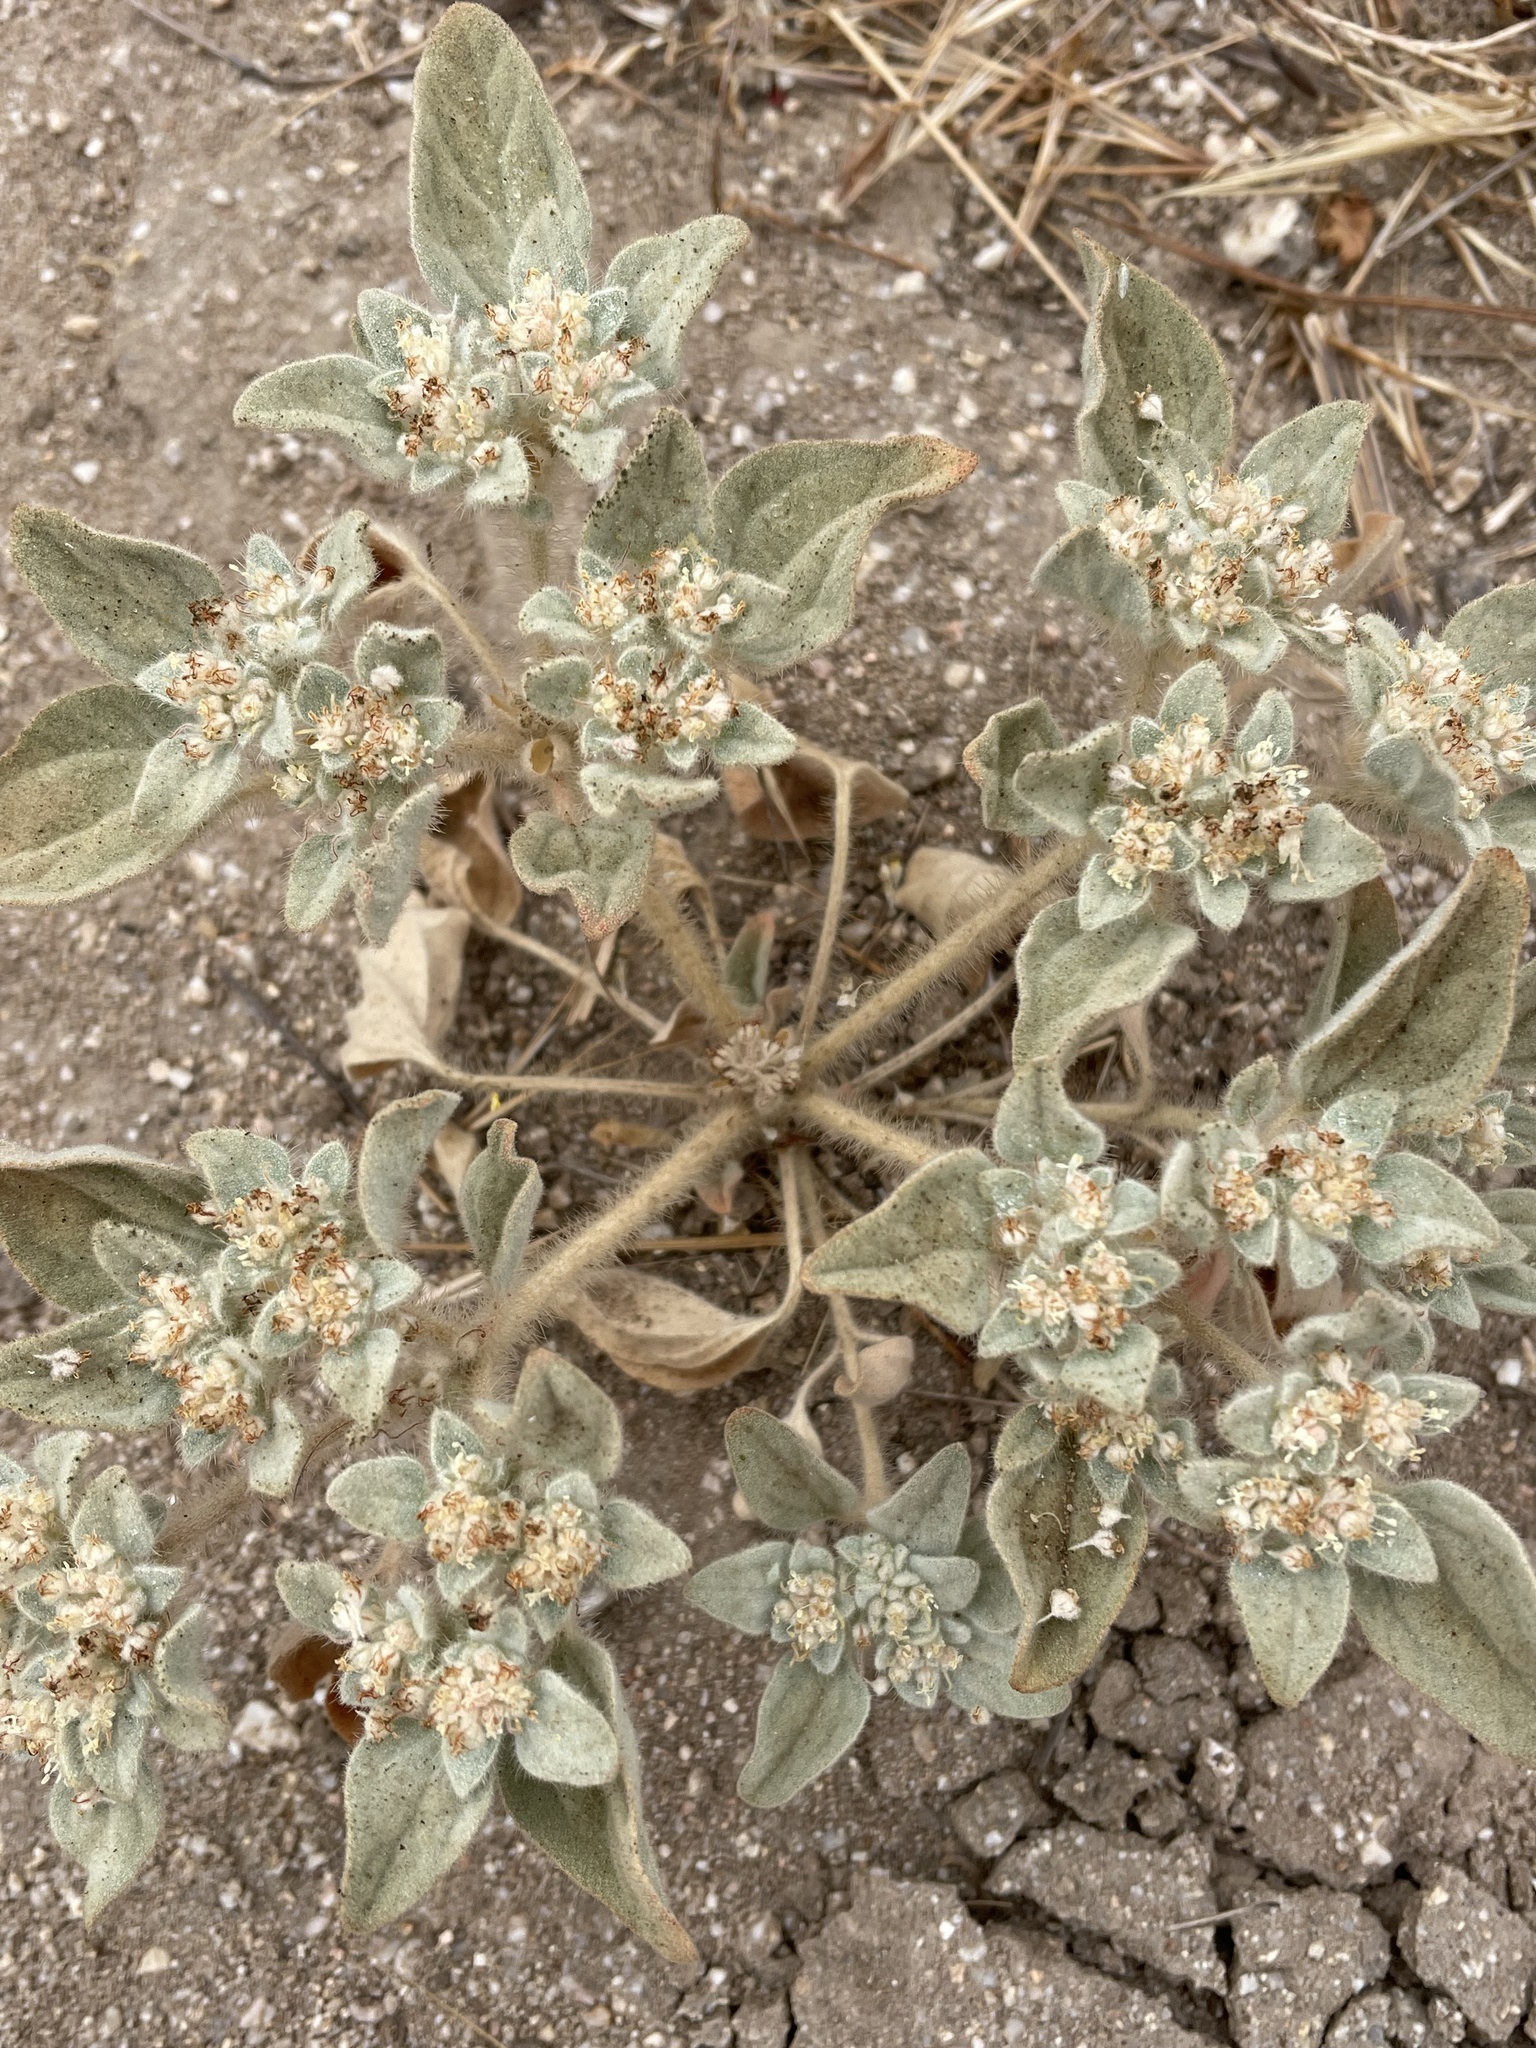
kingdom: Plantae
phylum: Tracheophyta
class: Magnoliopsida
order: Malpighiales
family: Euphorbiaceae
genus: Croton
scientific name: Croton setiger
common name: Dove weed
